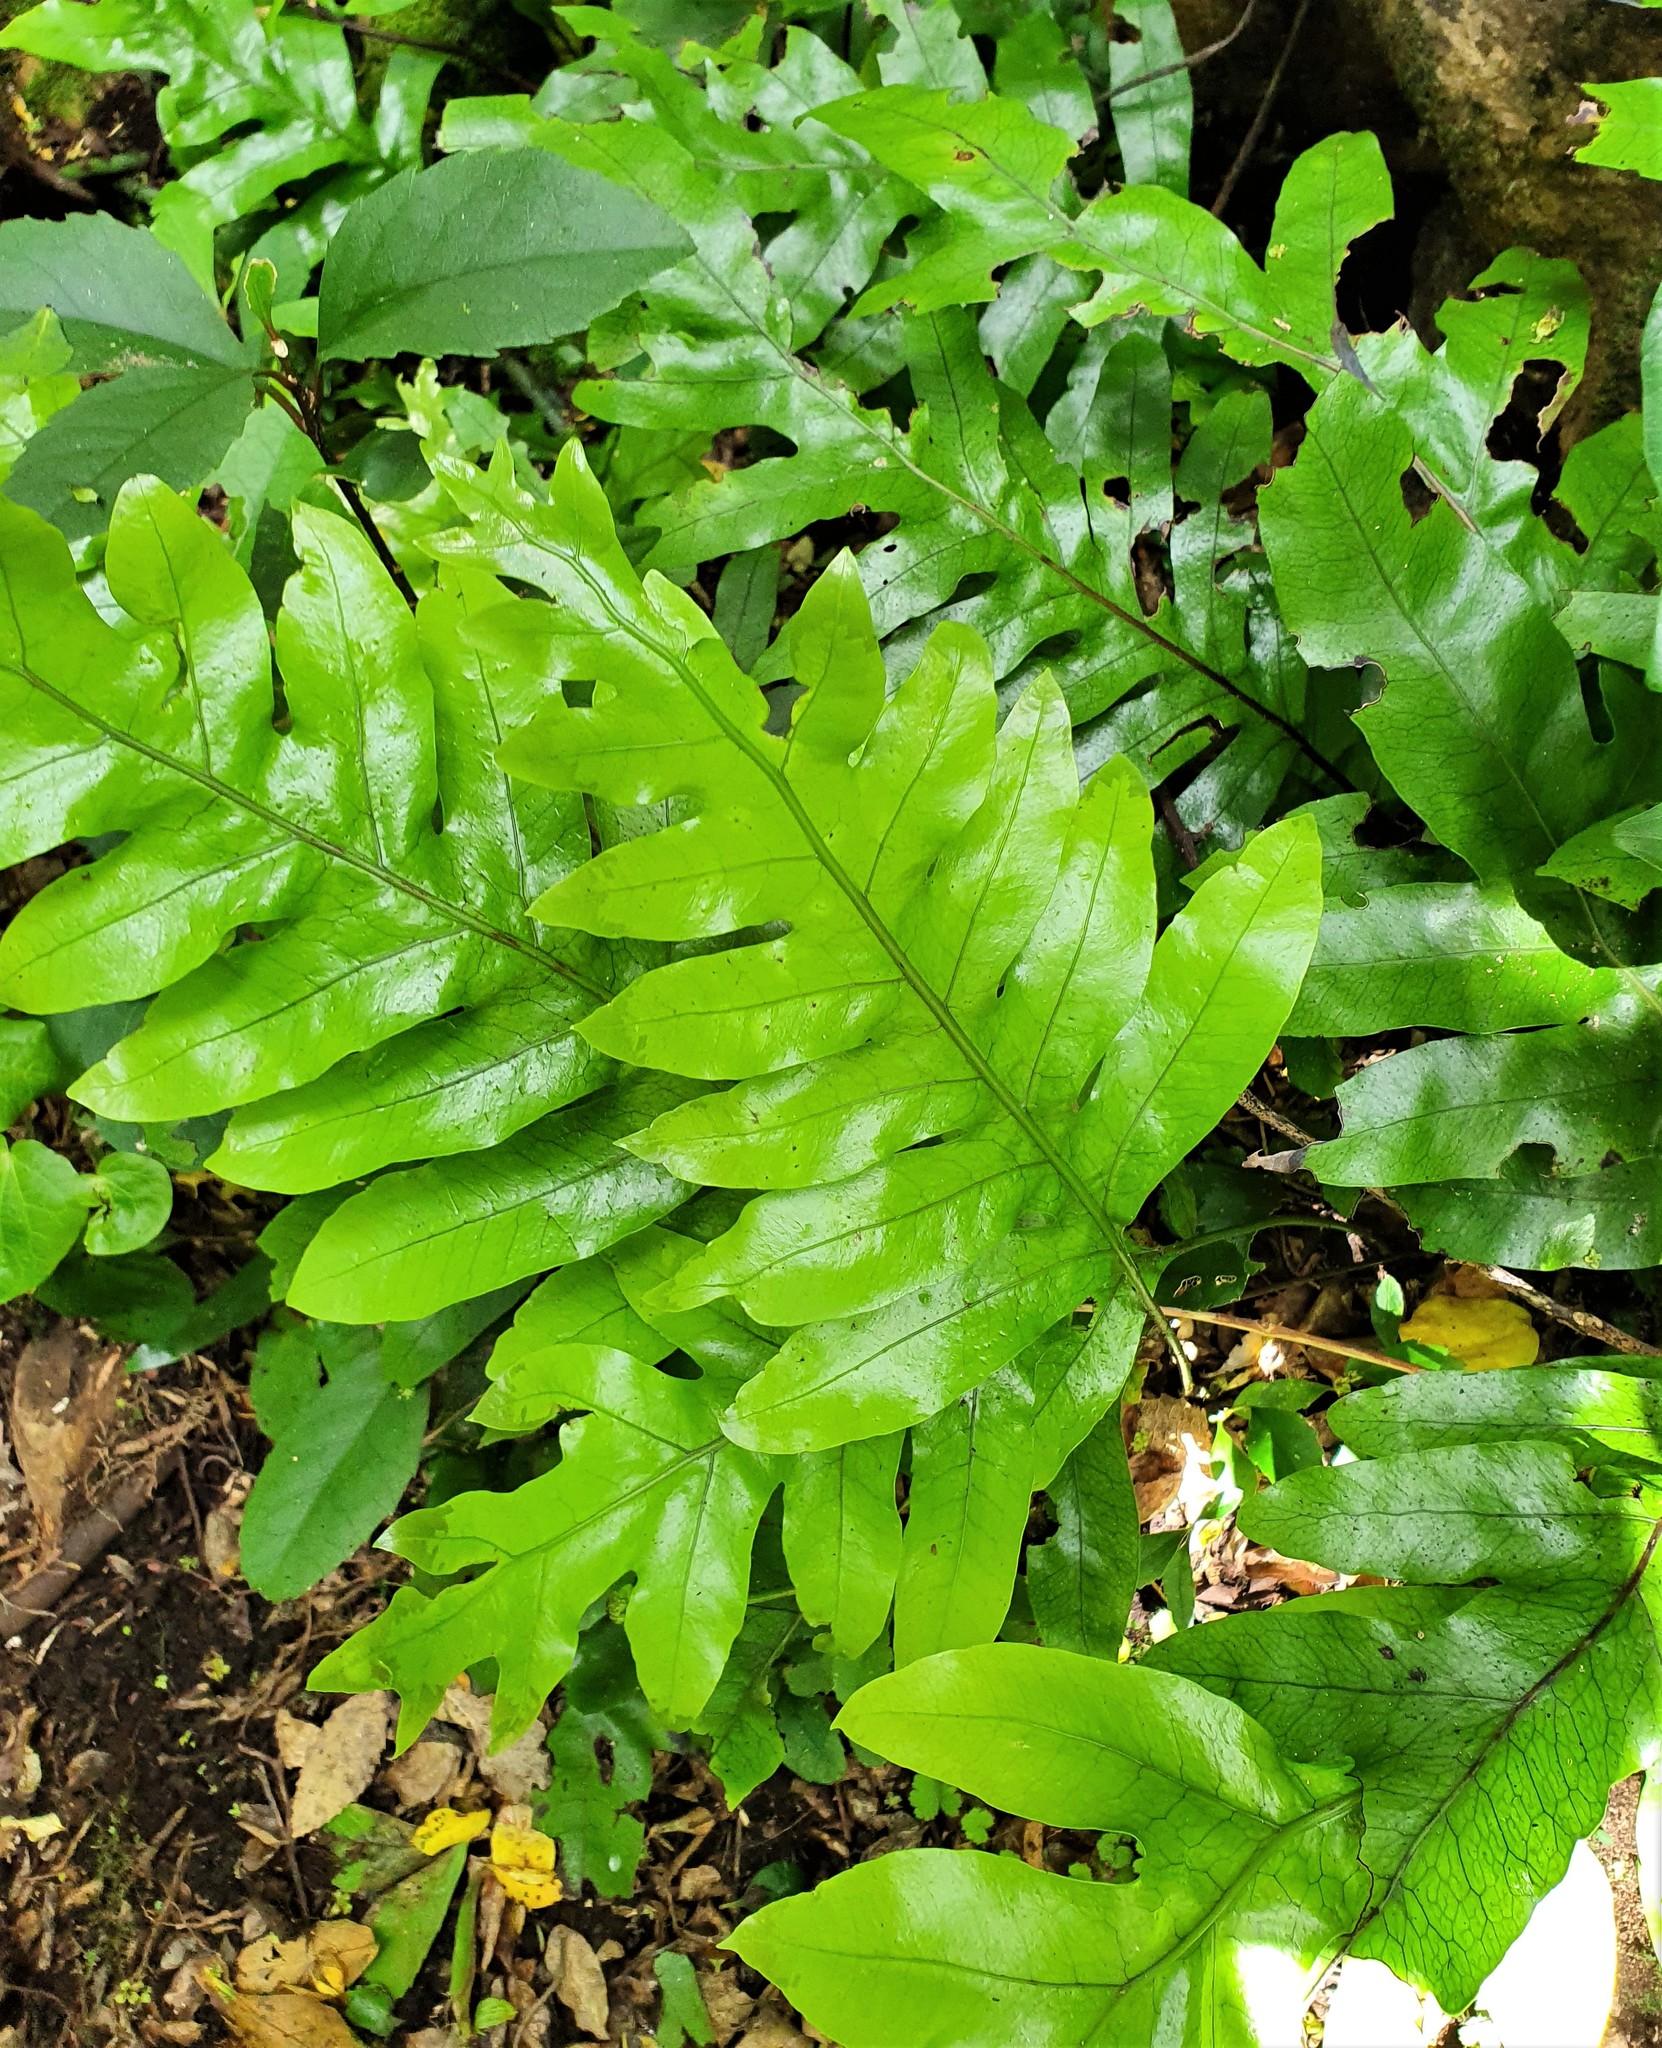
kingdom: Plantae
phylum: Tracheophyta
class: Polypodiopsida
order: Polypodiales
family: Polypodiaceae
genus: Lecanopteris
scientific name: Lecanopteris pustulata
